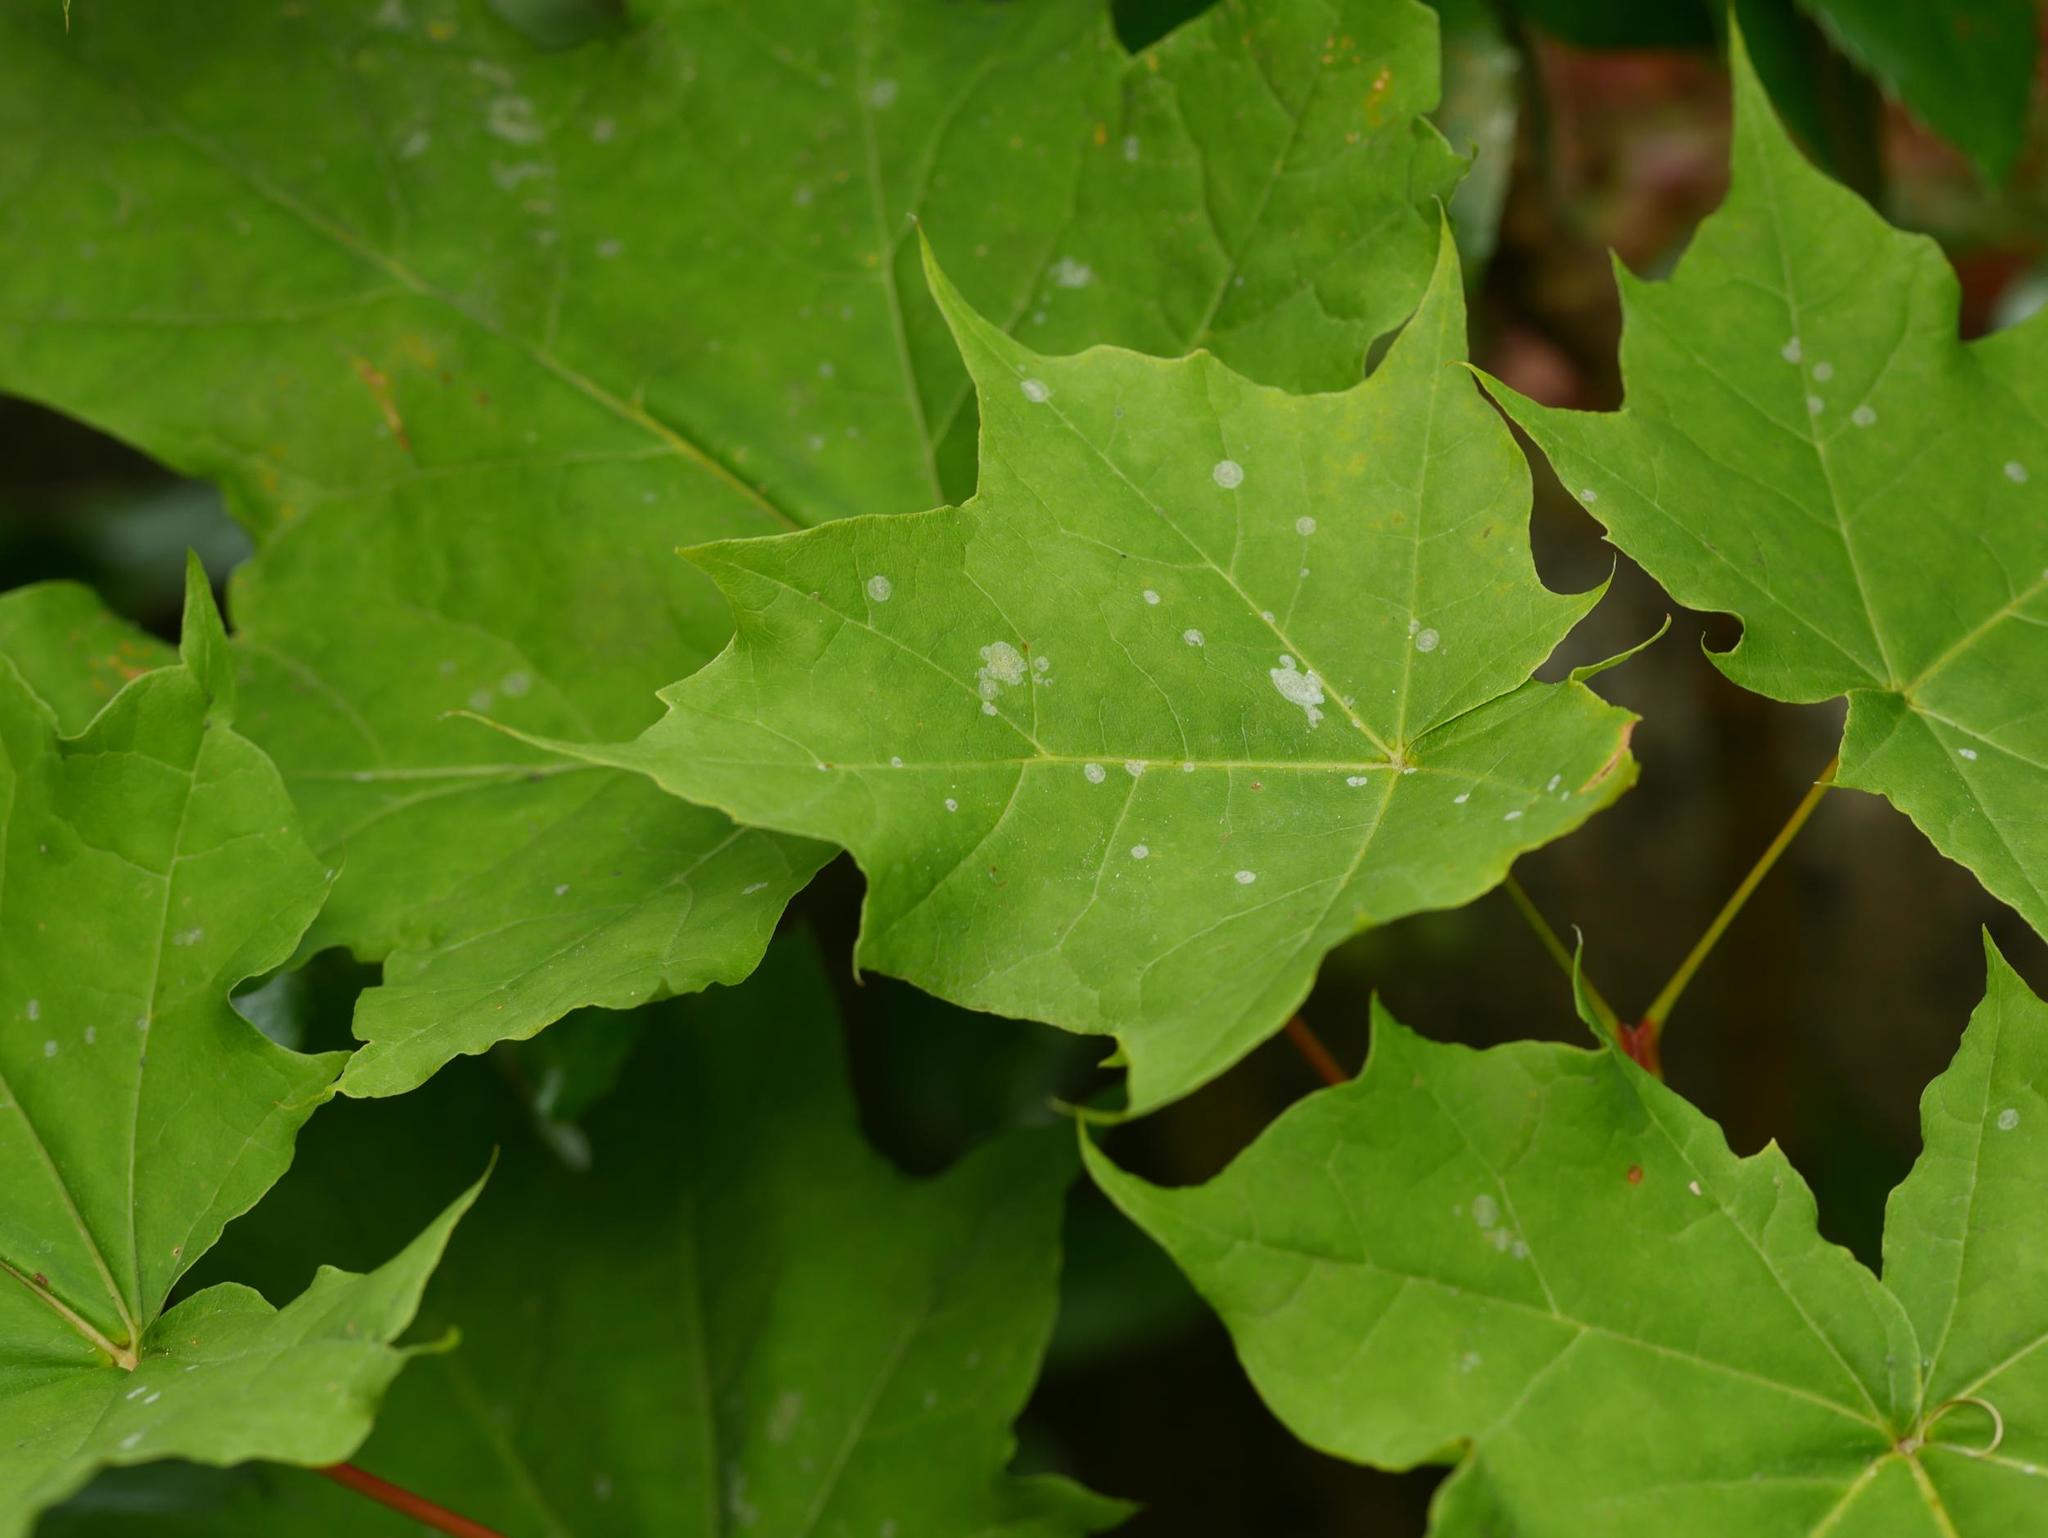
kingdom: Plantae
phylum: Tracheophyta
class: Magnoliopsida
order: Sapindales
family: Sapindaceae
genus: Acer
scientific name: Acer platanoides
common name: Norway maple
